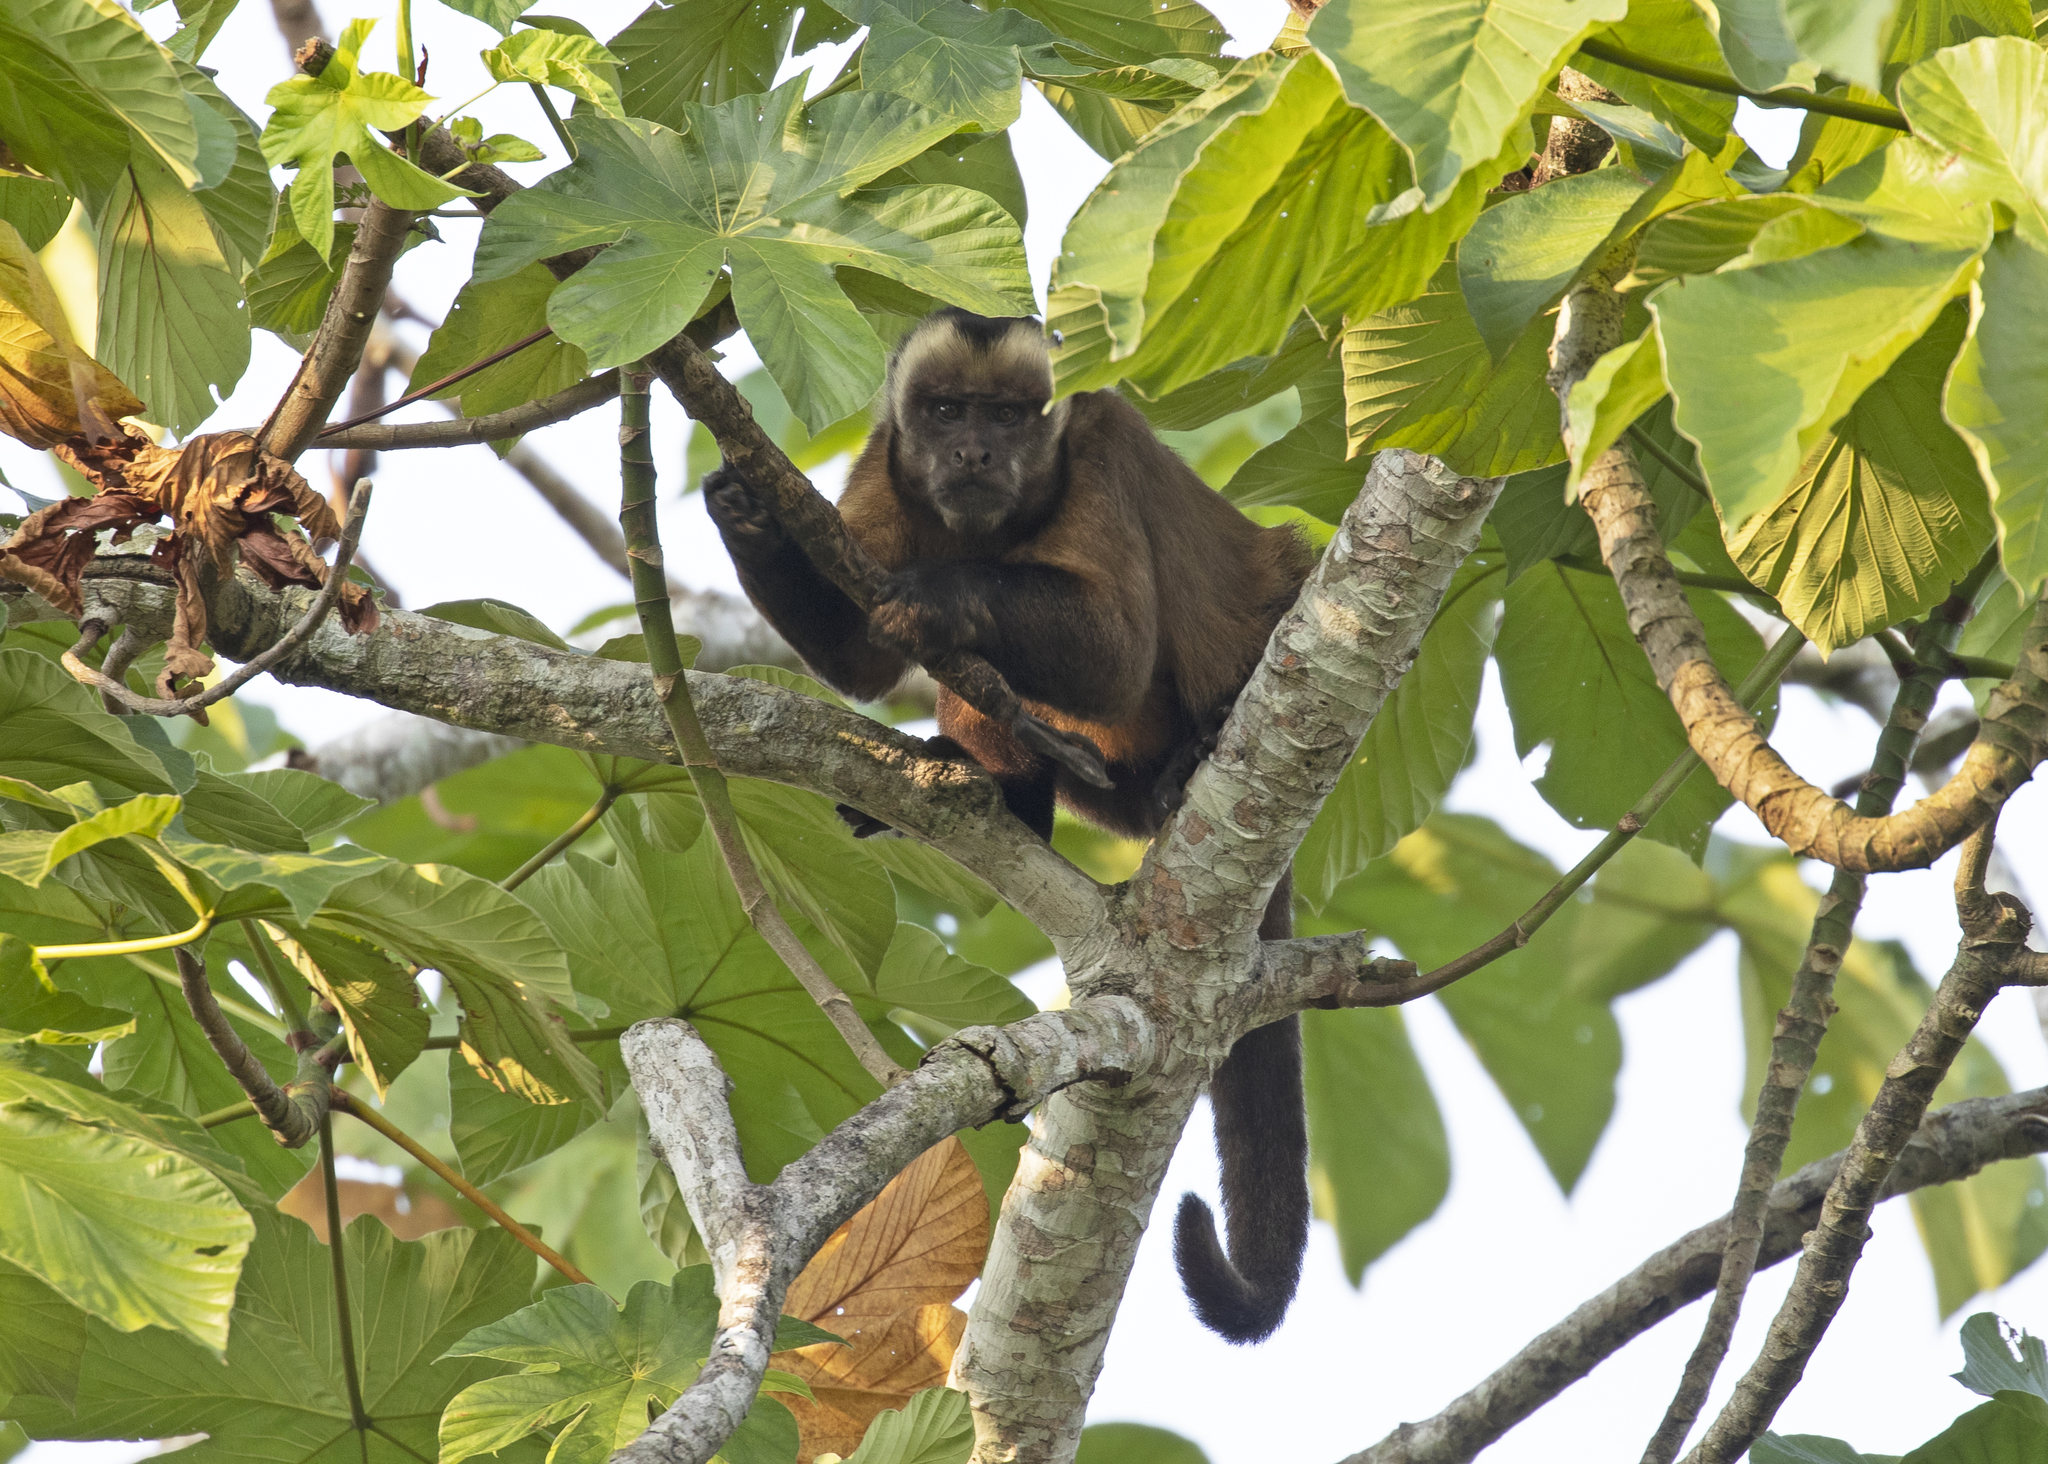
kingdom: Animalia
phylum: Chordata
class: Mammalia
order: Primates
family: Cebidae
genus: Sapajus
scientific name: Sapajus apella
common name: Tufted capuchin
